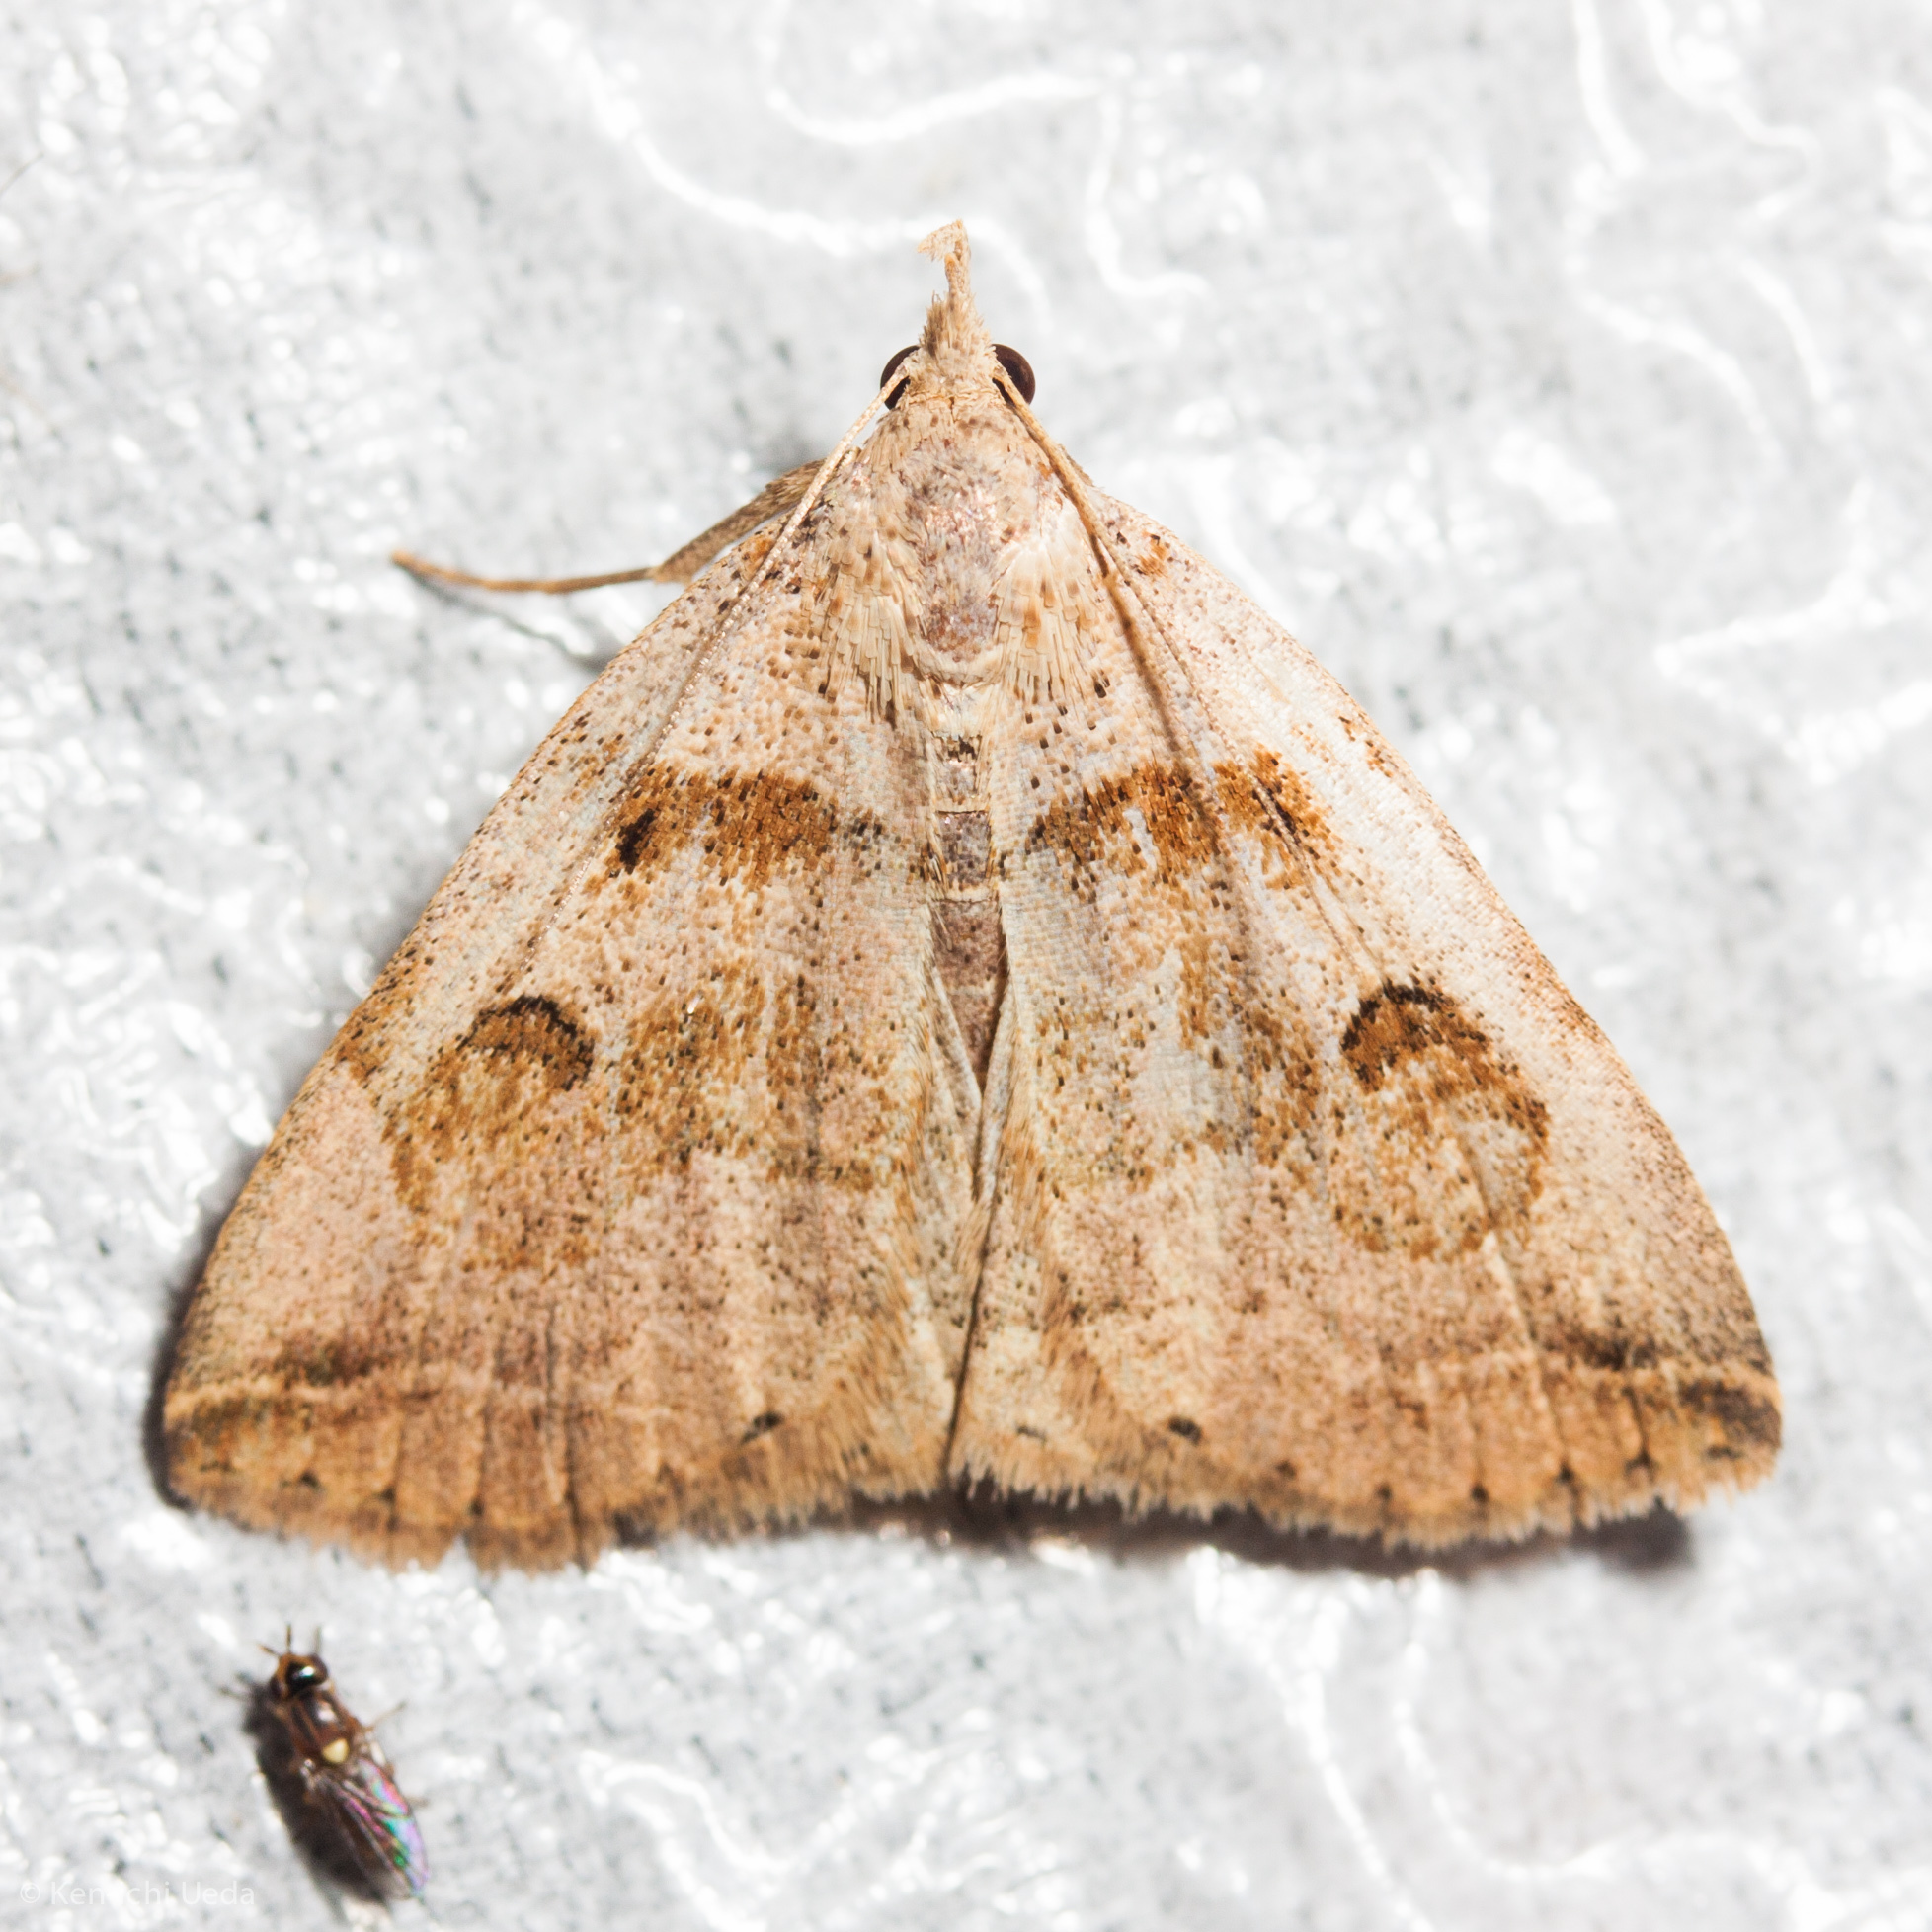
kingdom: Animalia
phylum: Arthropoda
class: Insecta
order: Lepidoptera
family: Erebidae
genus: Zanclognatha
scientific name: Zanclognatha laevigata
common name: Variable fan-foot
